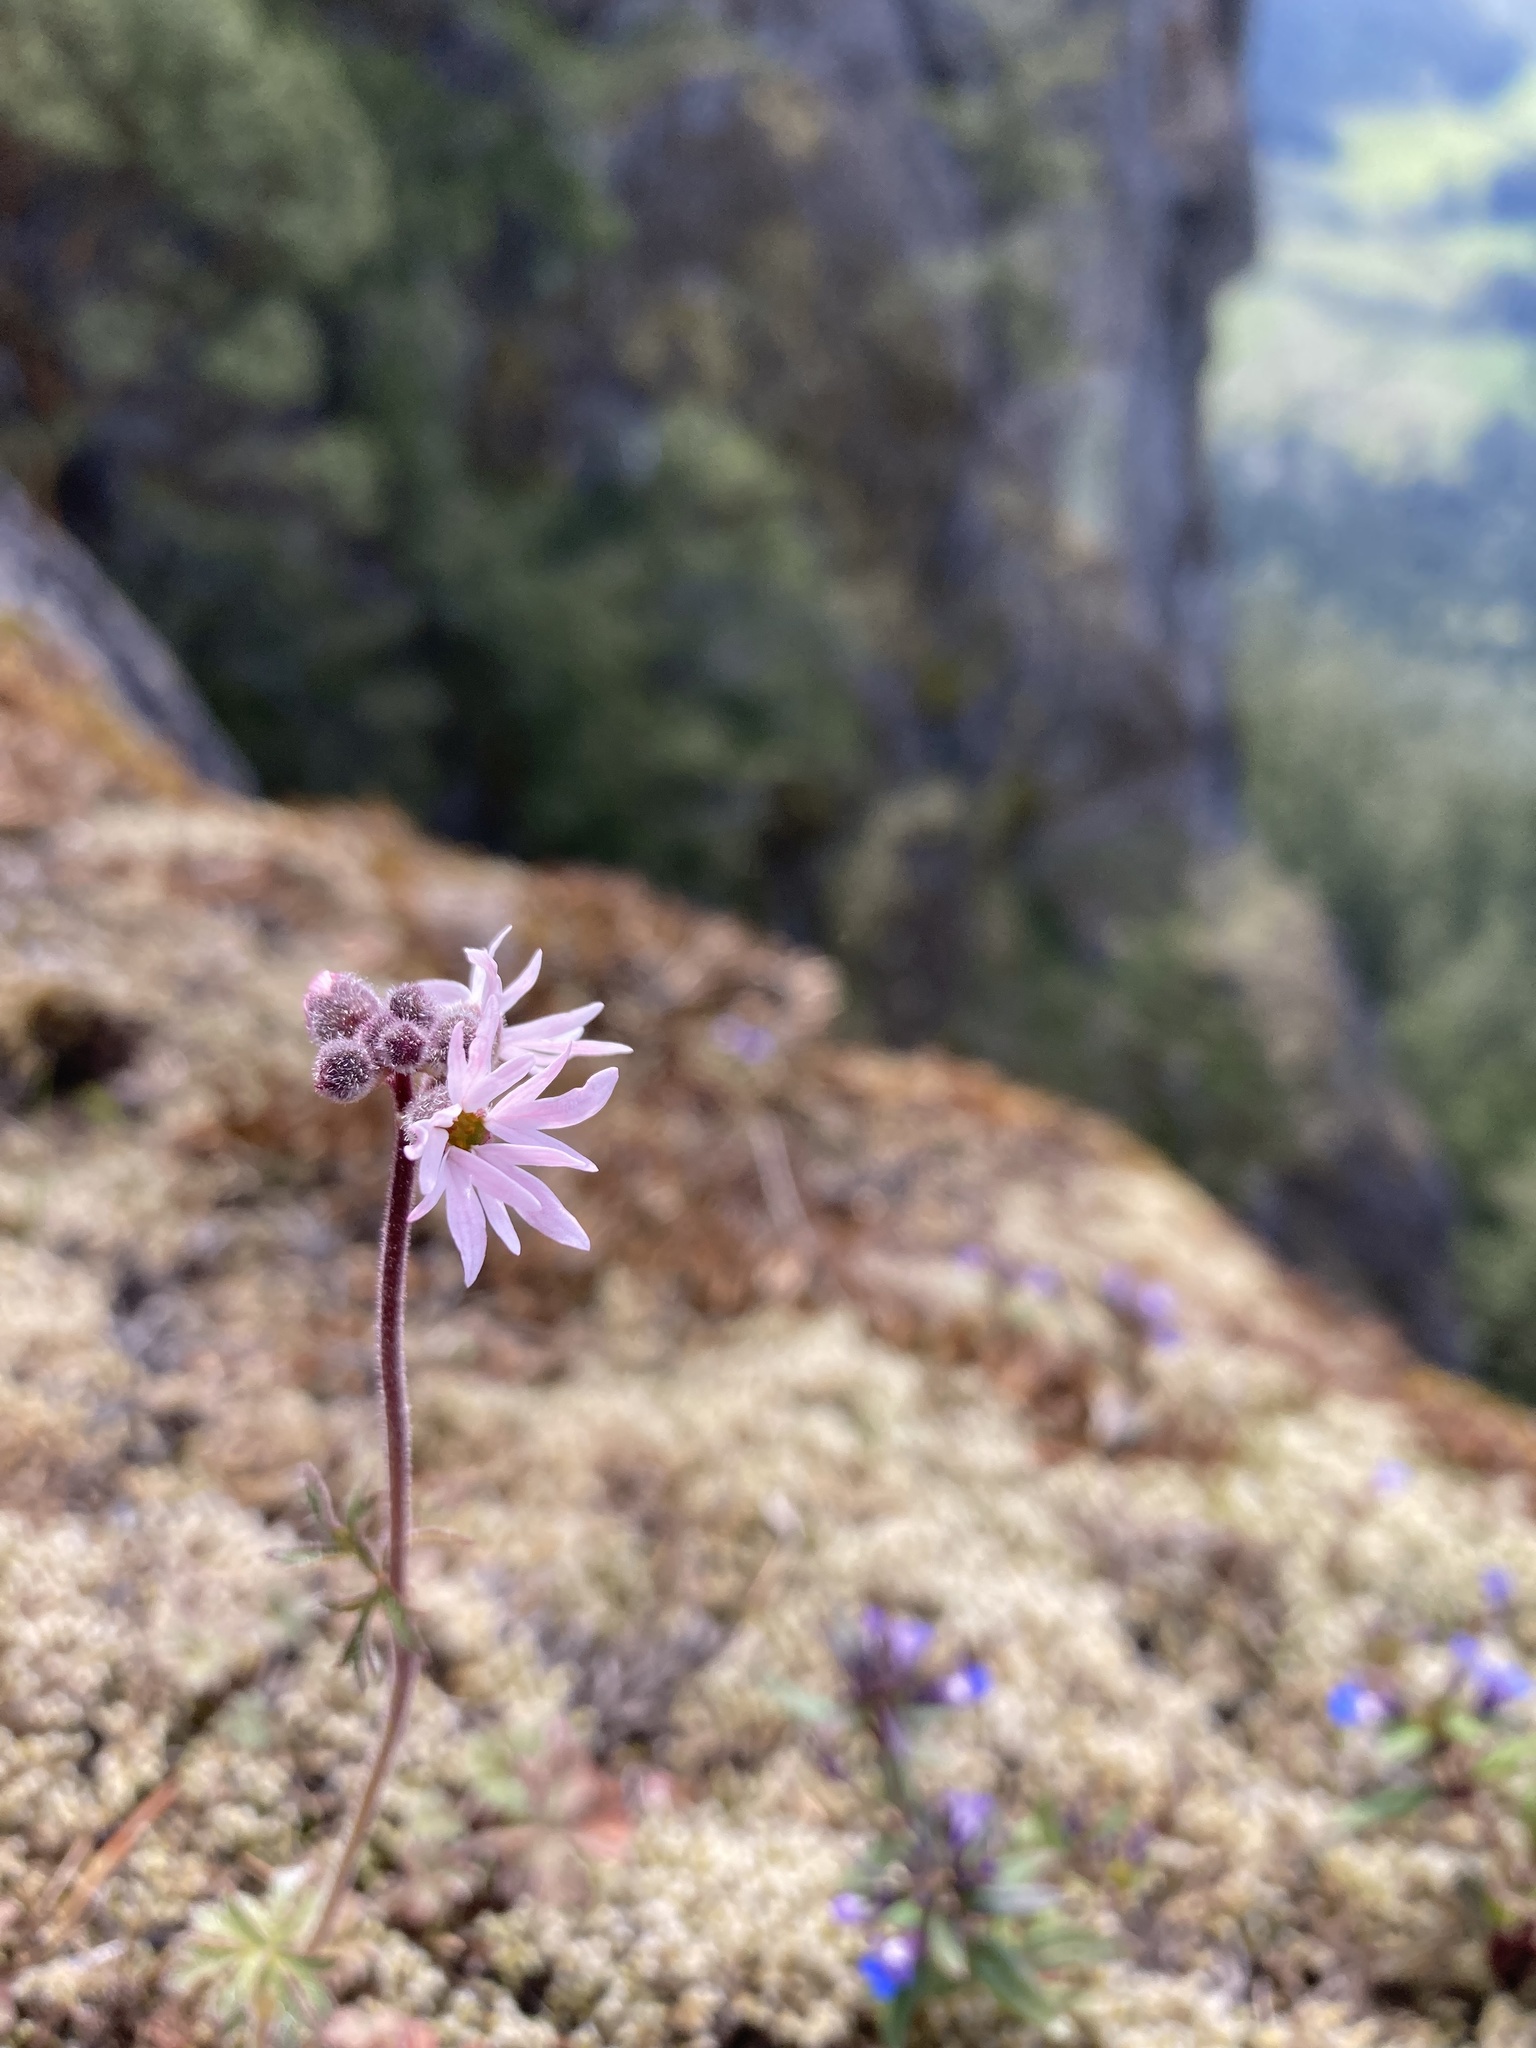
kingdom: Plantae
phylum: Tracheophyta
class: Magnoliopsida
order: Saxifragales
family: Saxifragaceae
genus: Lithophragma
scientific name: Lithophragma parviflorum
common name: Small-flowered fringe-cup
